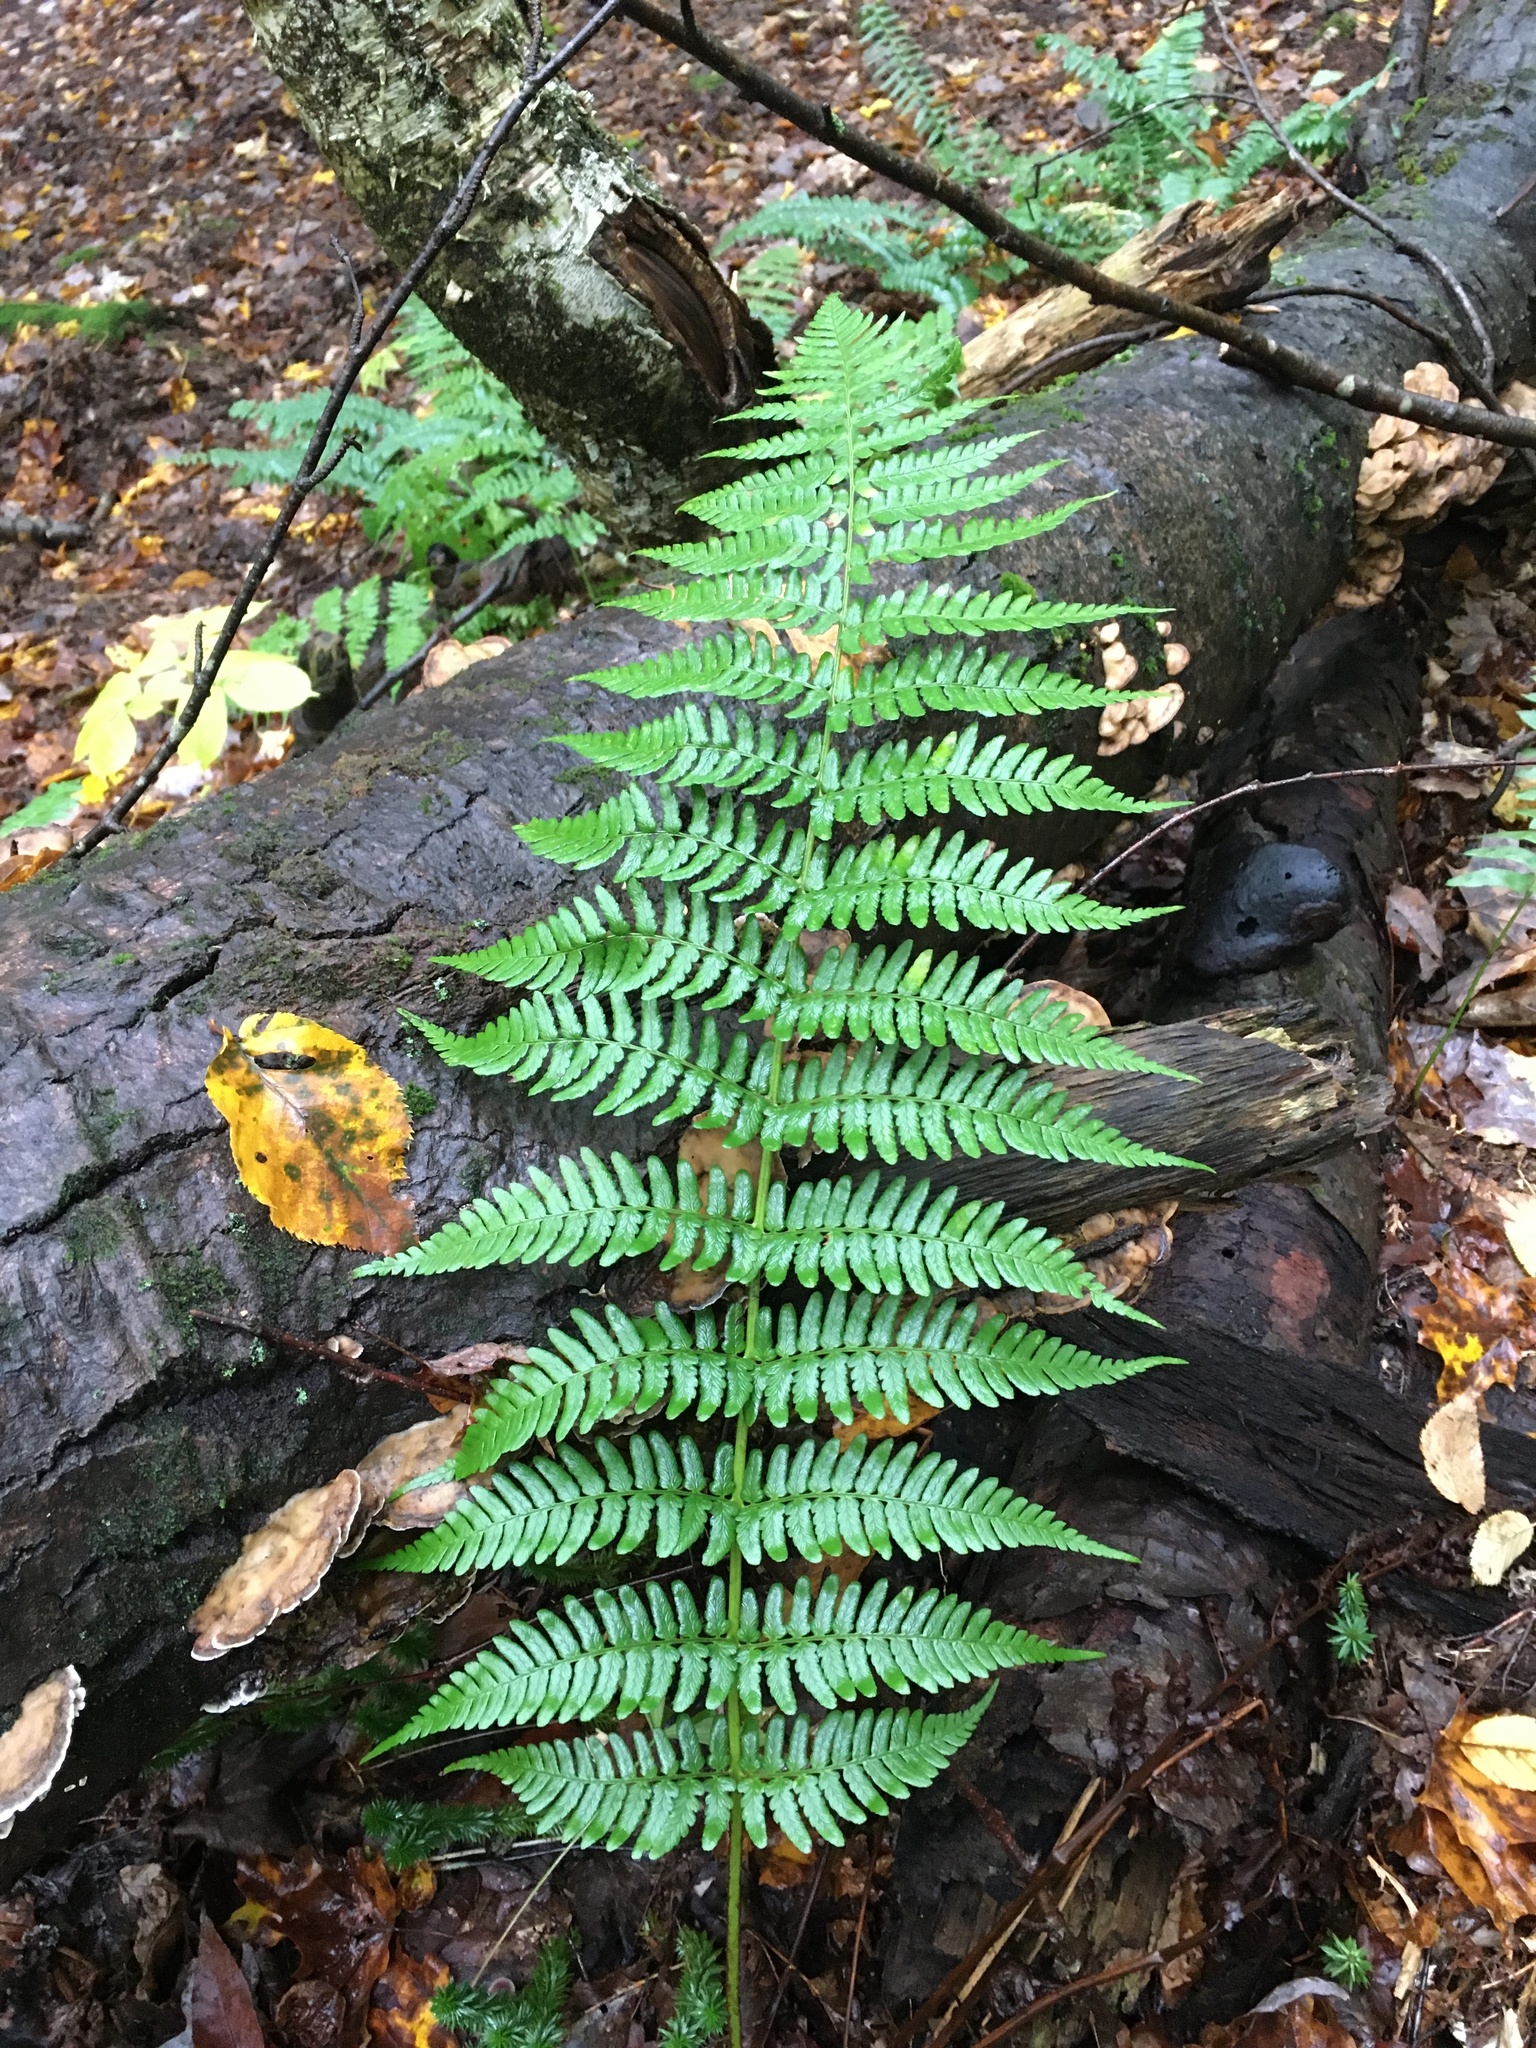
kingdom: Plantae
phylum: Tracheophyta
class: Polypodiopsida
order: Polypodiales
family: Dryopteridaceae
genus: Dryopteris
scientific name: Dryopteris marginalis
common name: Marginal wood fern
